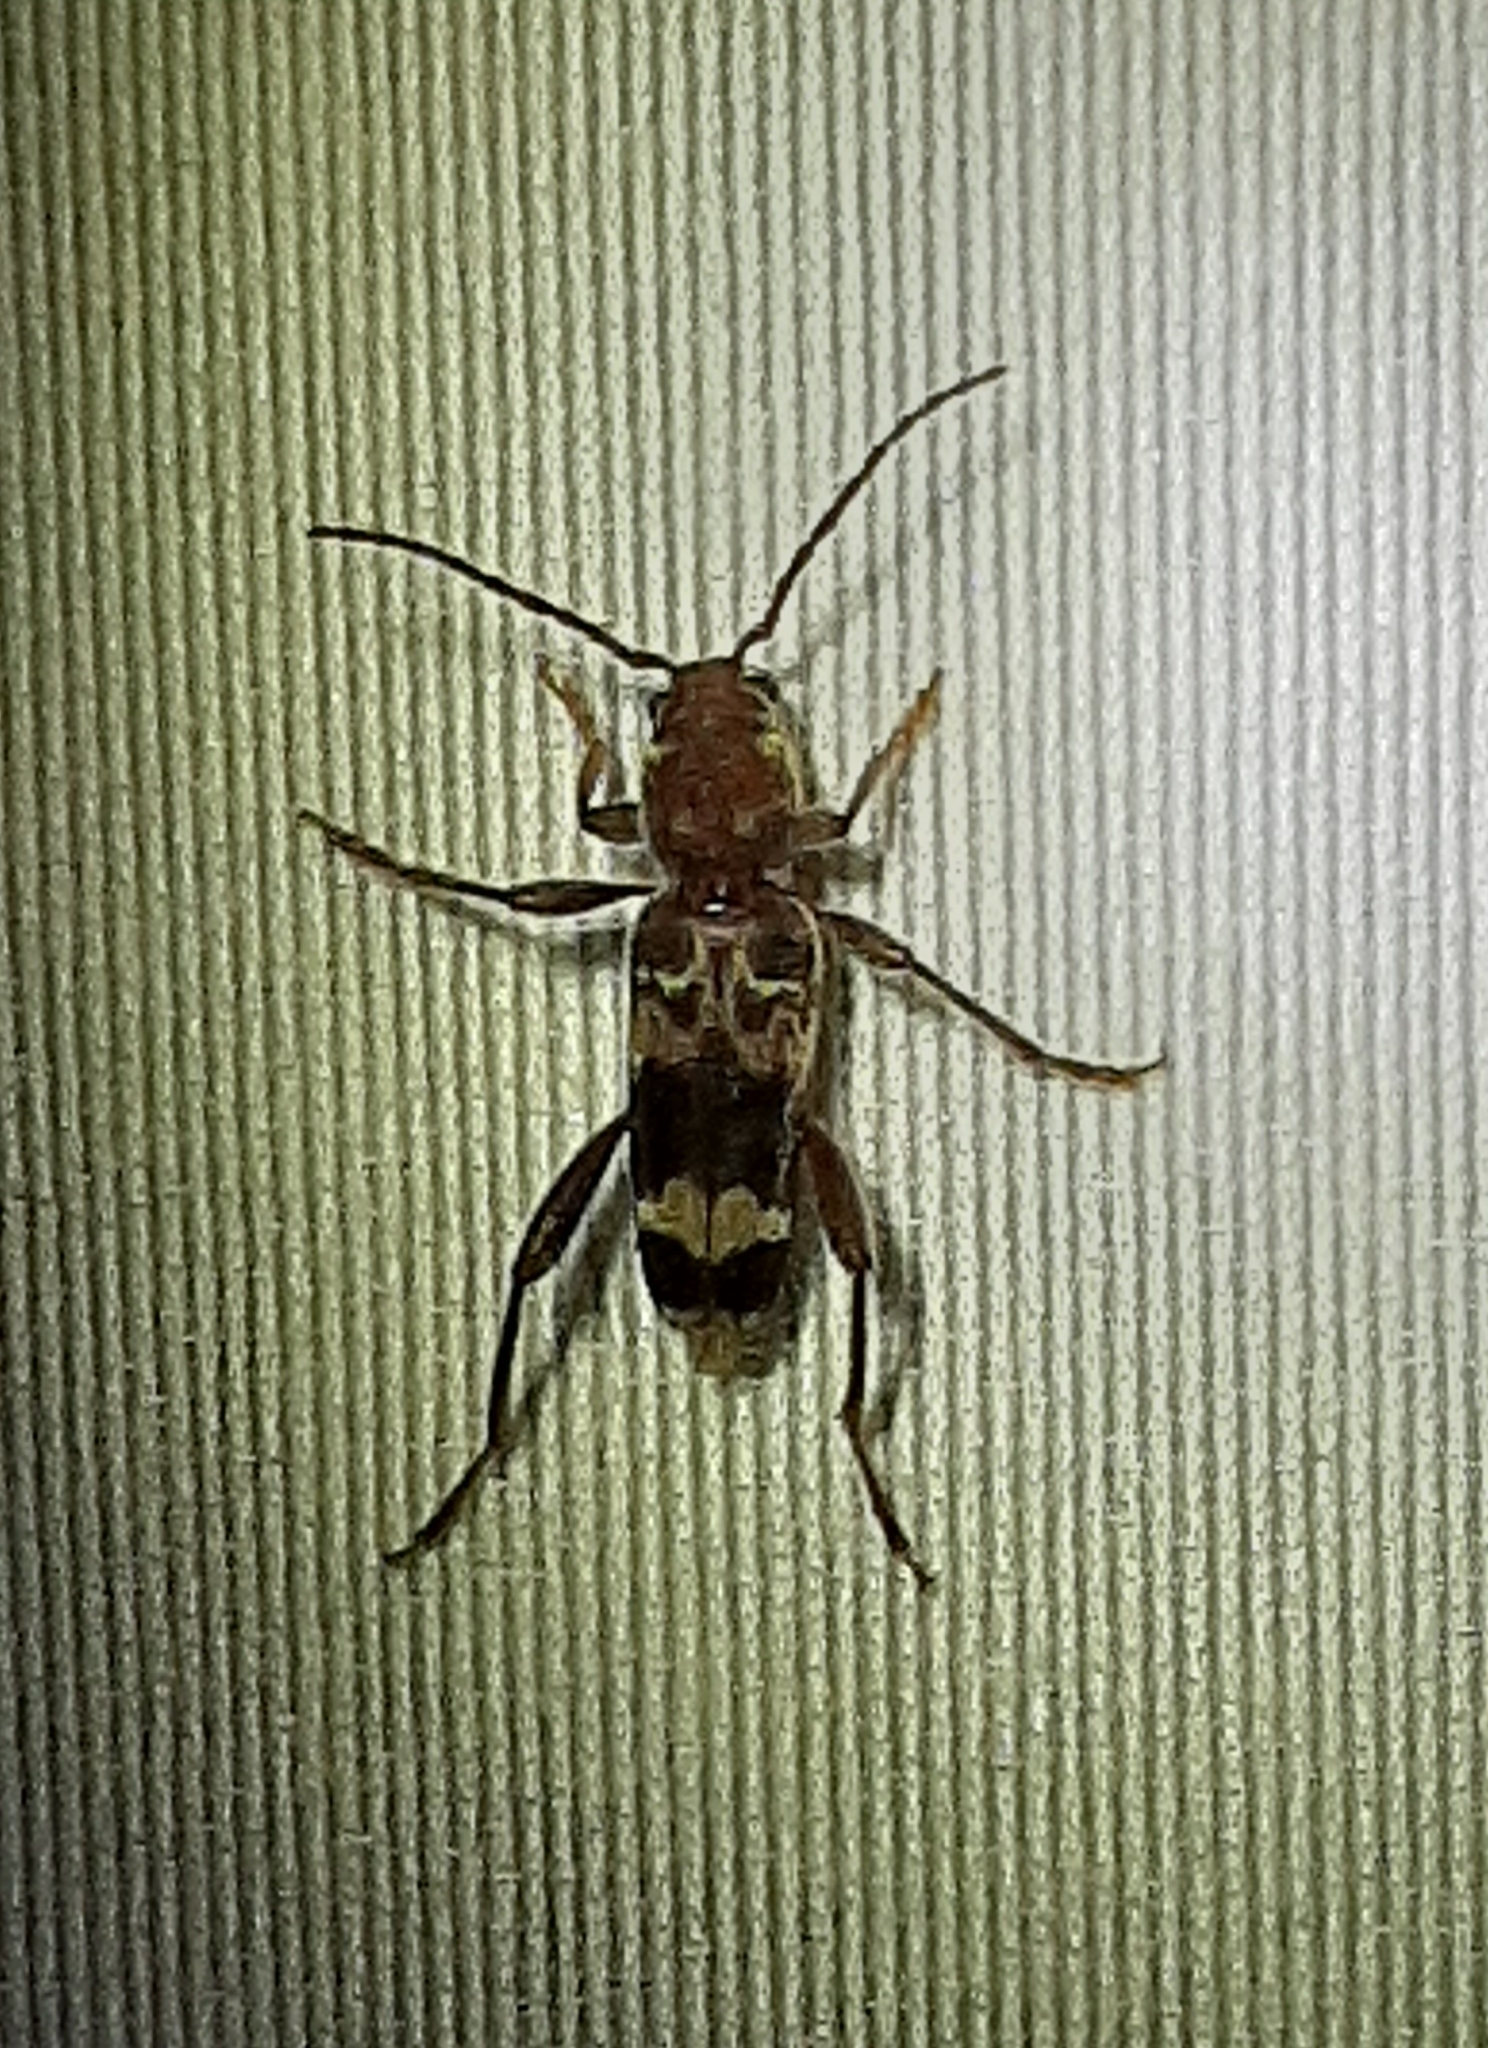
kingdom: Animalia
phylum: Arthropoda
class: Insecta
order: Coleoptera
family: Cerambycidae
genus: Xylotrechus
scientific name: Xylotrechus colonus
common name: Long-horned beetle
